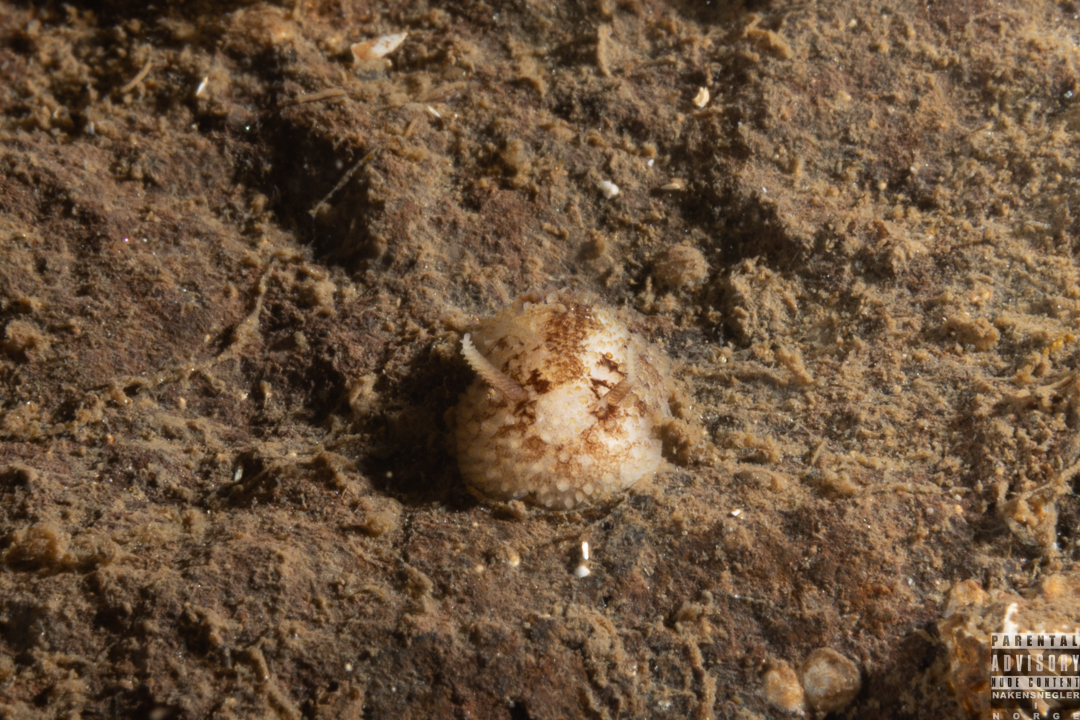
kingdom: Animalia
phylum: Mollusca
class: Gastropoda
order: Nudibranchia
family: Onchidorididae
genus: Onchidoris
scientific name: Onchidoris bilamellata
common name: Barnacle-eating onchidoris
